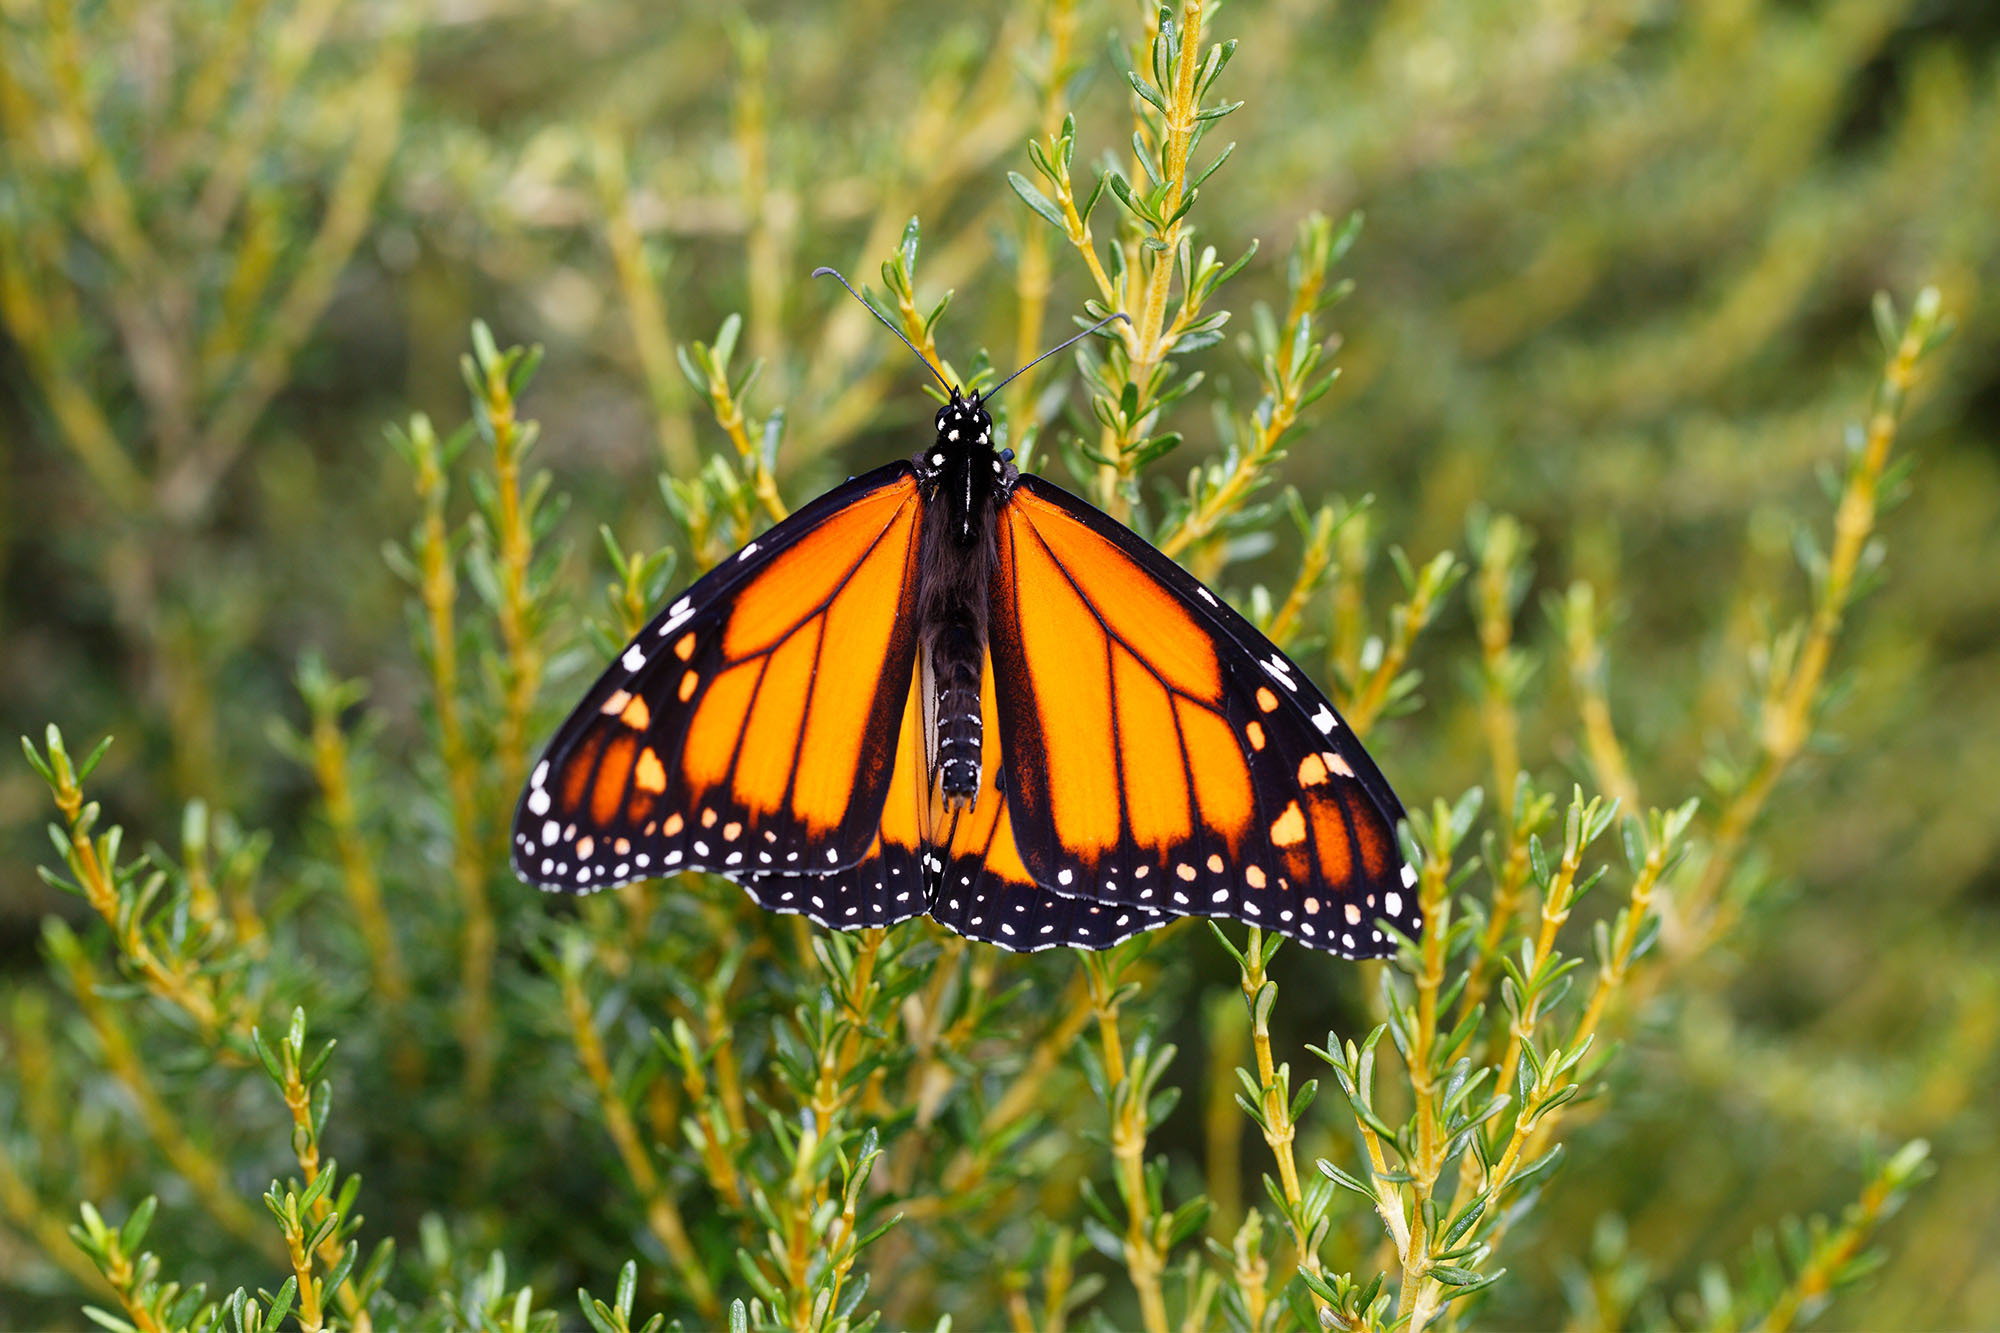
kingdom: Animalia
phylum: Arthropoda
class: Insecta
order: Lepidoptera
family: Nymphalidae
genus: Danaus
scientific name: Danaus plexippus
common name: Monarch
